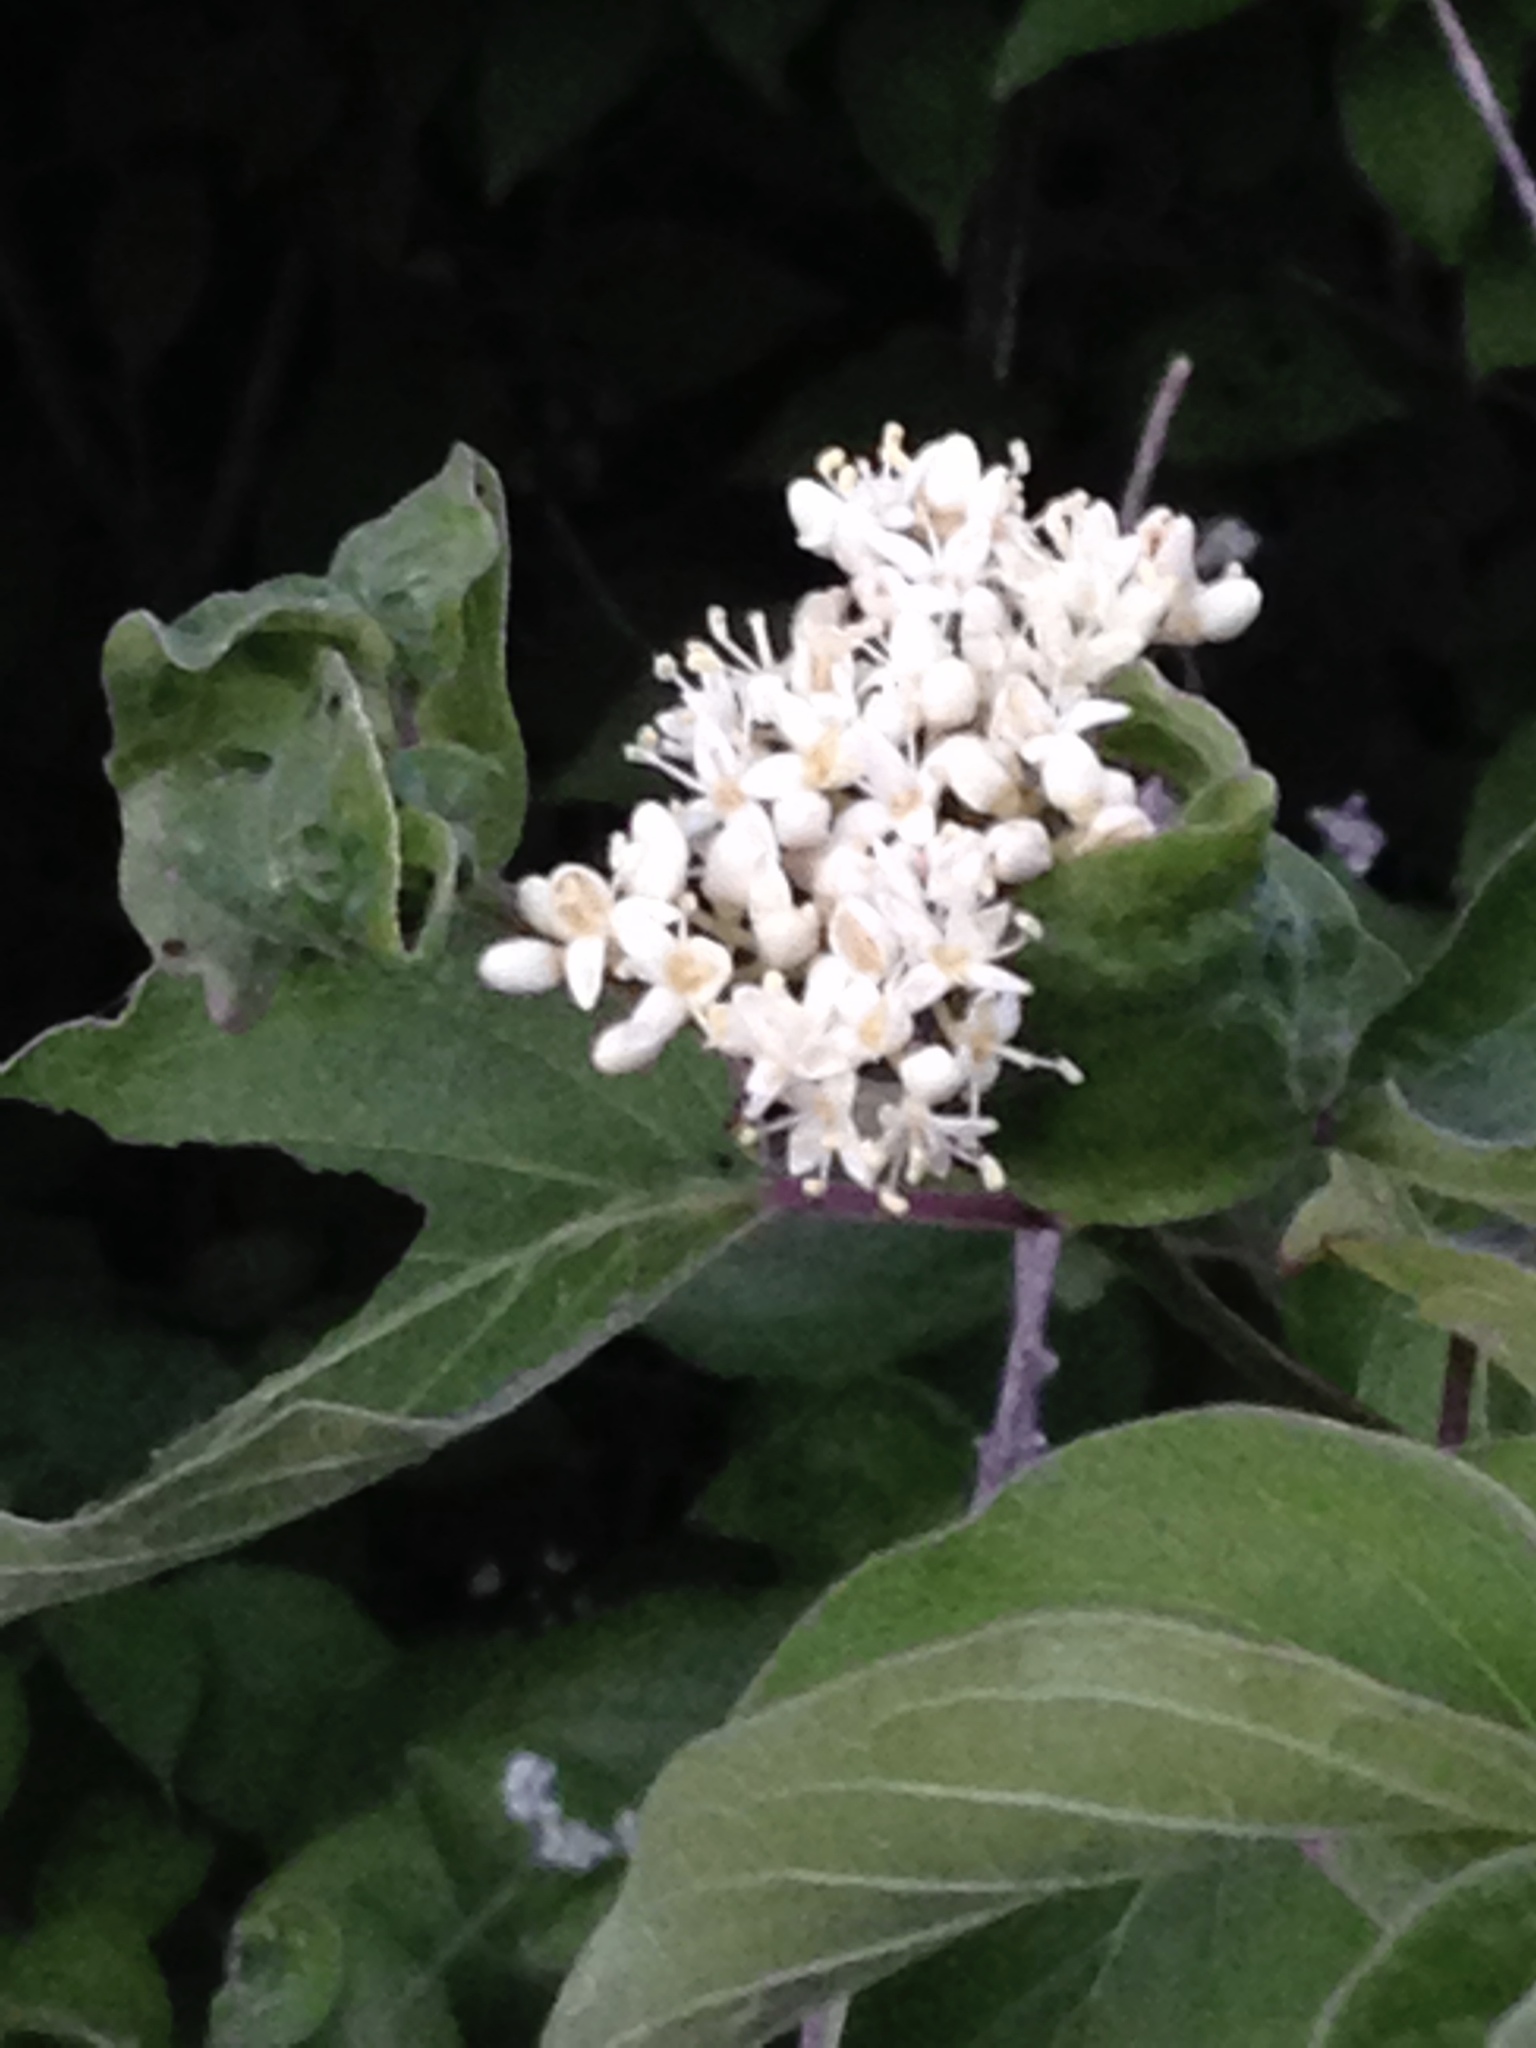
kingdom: Plantae
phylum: Tracheophyta
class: Magnoliopsida
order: Cornales
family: Cornaceae
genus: Cornus
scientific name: Cornus drummondii
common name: Rough-leaf dogwood
